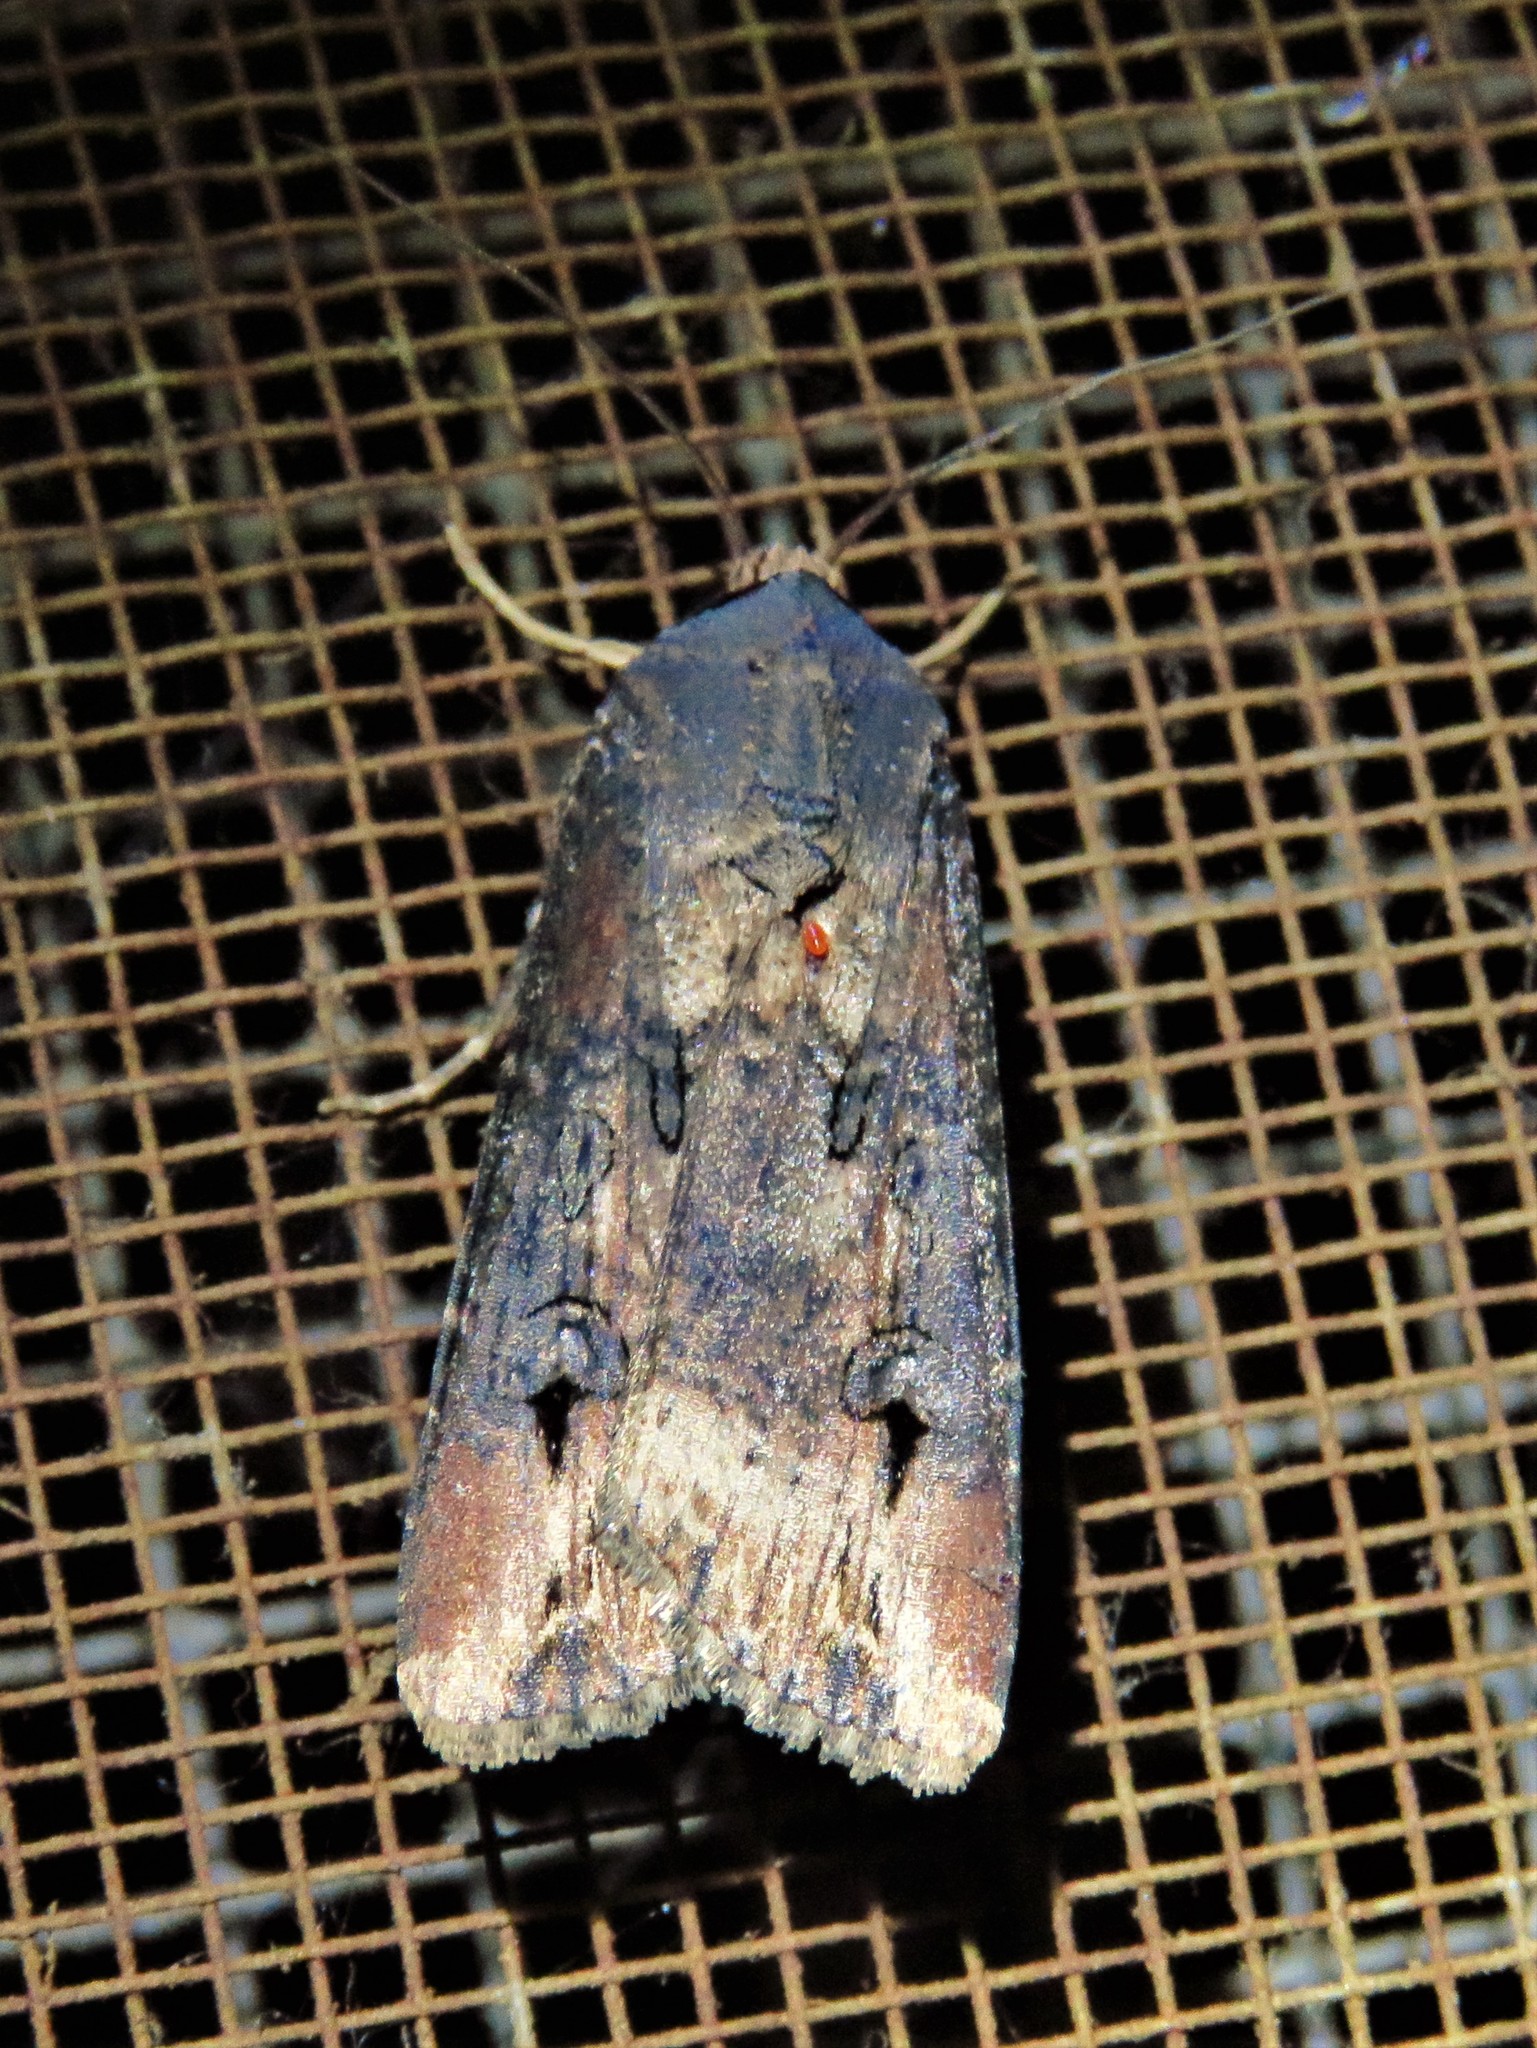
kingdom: Animalia
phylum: Arthropoda
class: Insecta
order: Lepidoptera
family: Noctuidae
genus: Agrotis
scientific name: Agrotis ipsilon
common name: Dark sword-grass
